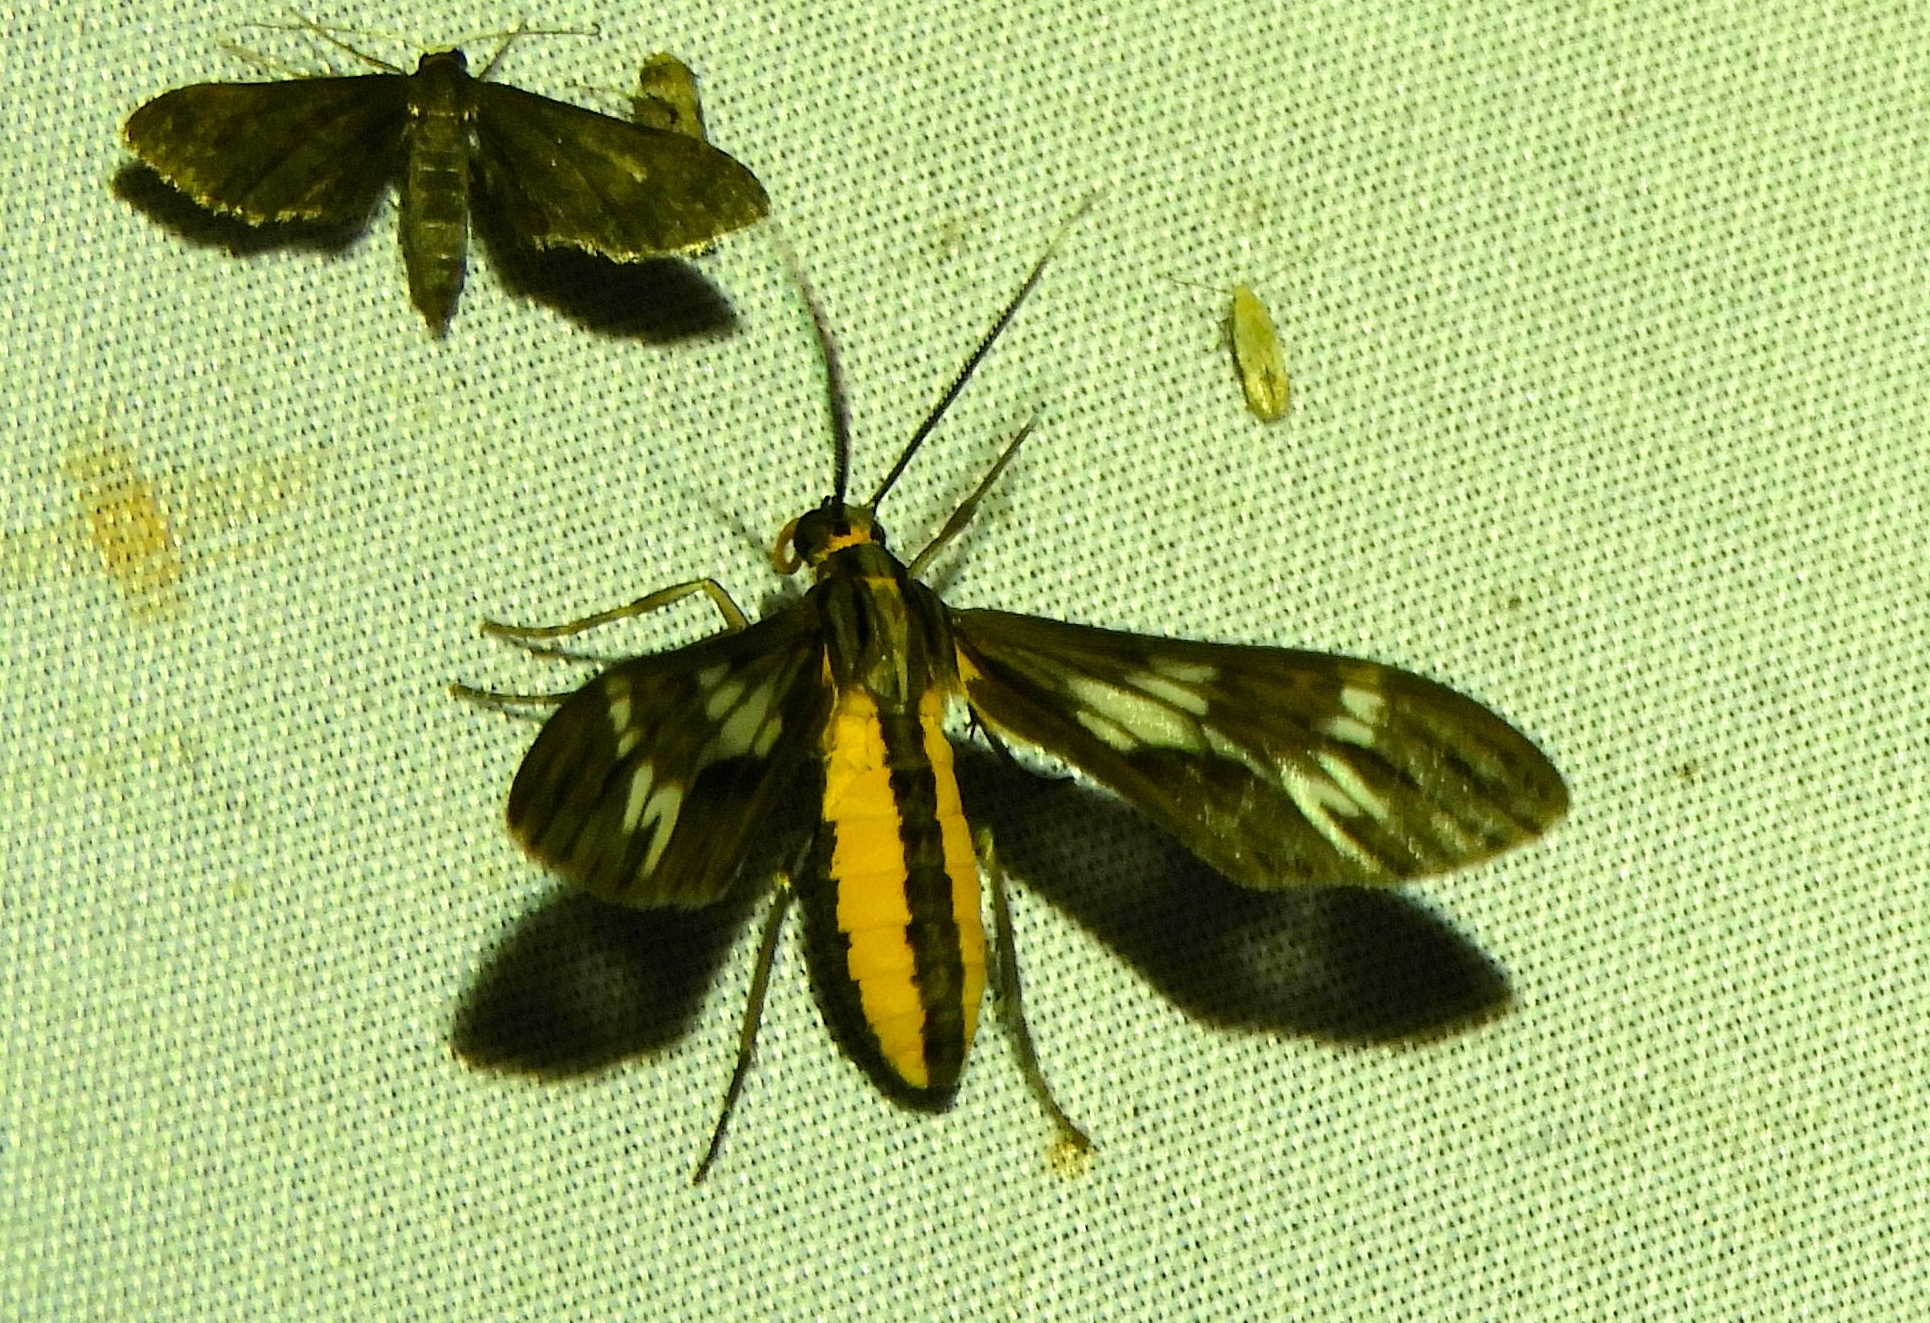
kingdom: Animalia
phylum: Arthropoda
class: Insecta
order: Lepidoptera
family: Erebidae
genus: Psilopleura
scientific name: Psilopleura polia
